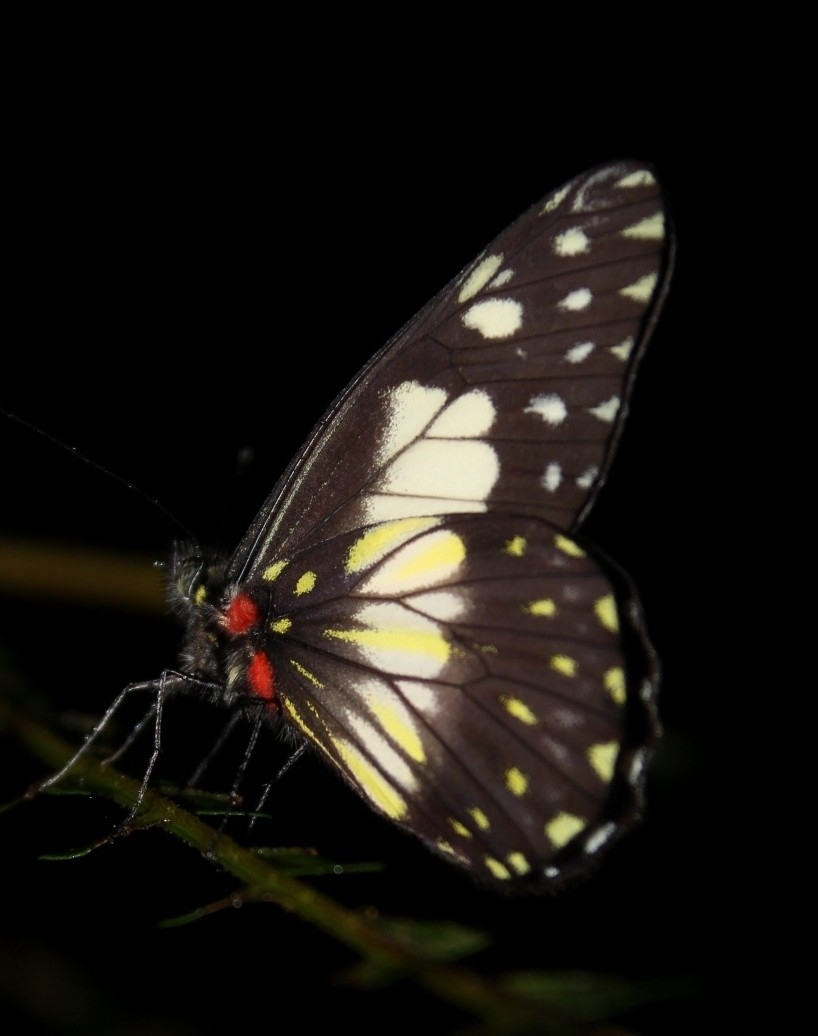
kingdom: Animalia
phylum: Arthropoda
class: Insecta
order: Lepidoptera
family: Pieridae
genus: Archonias
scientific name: Archonias nimbice
